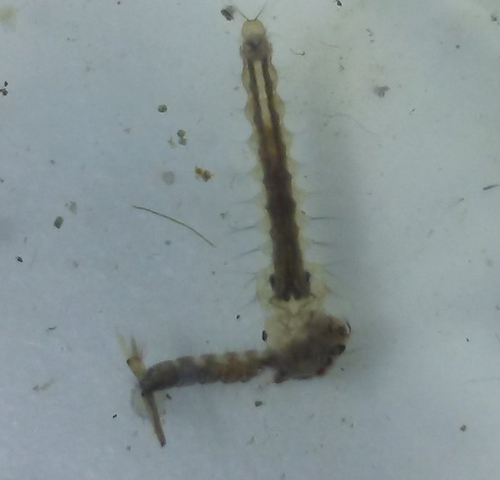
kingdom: Animalia
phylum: Arthropoda
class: Insecta
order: Diptera
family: Culicidae
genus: Psorophora
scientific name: Psorophora howardii
